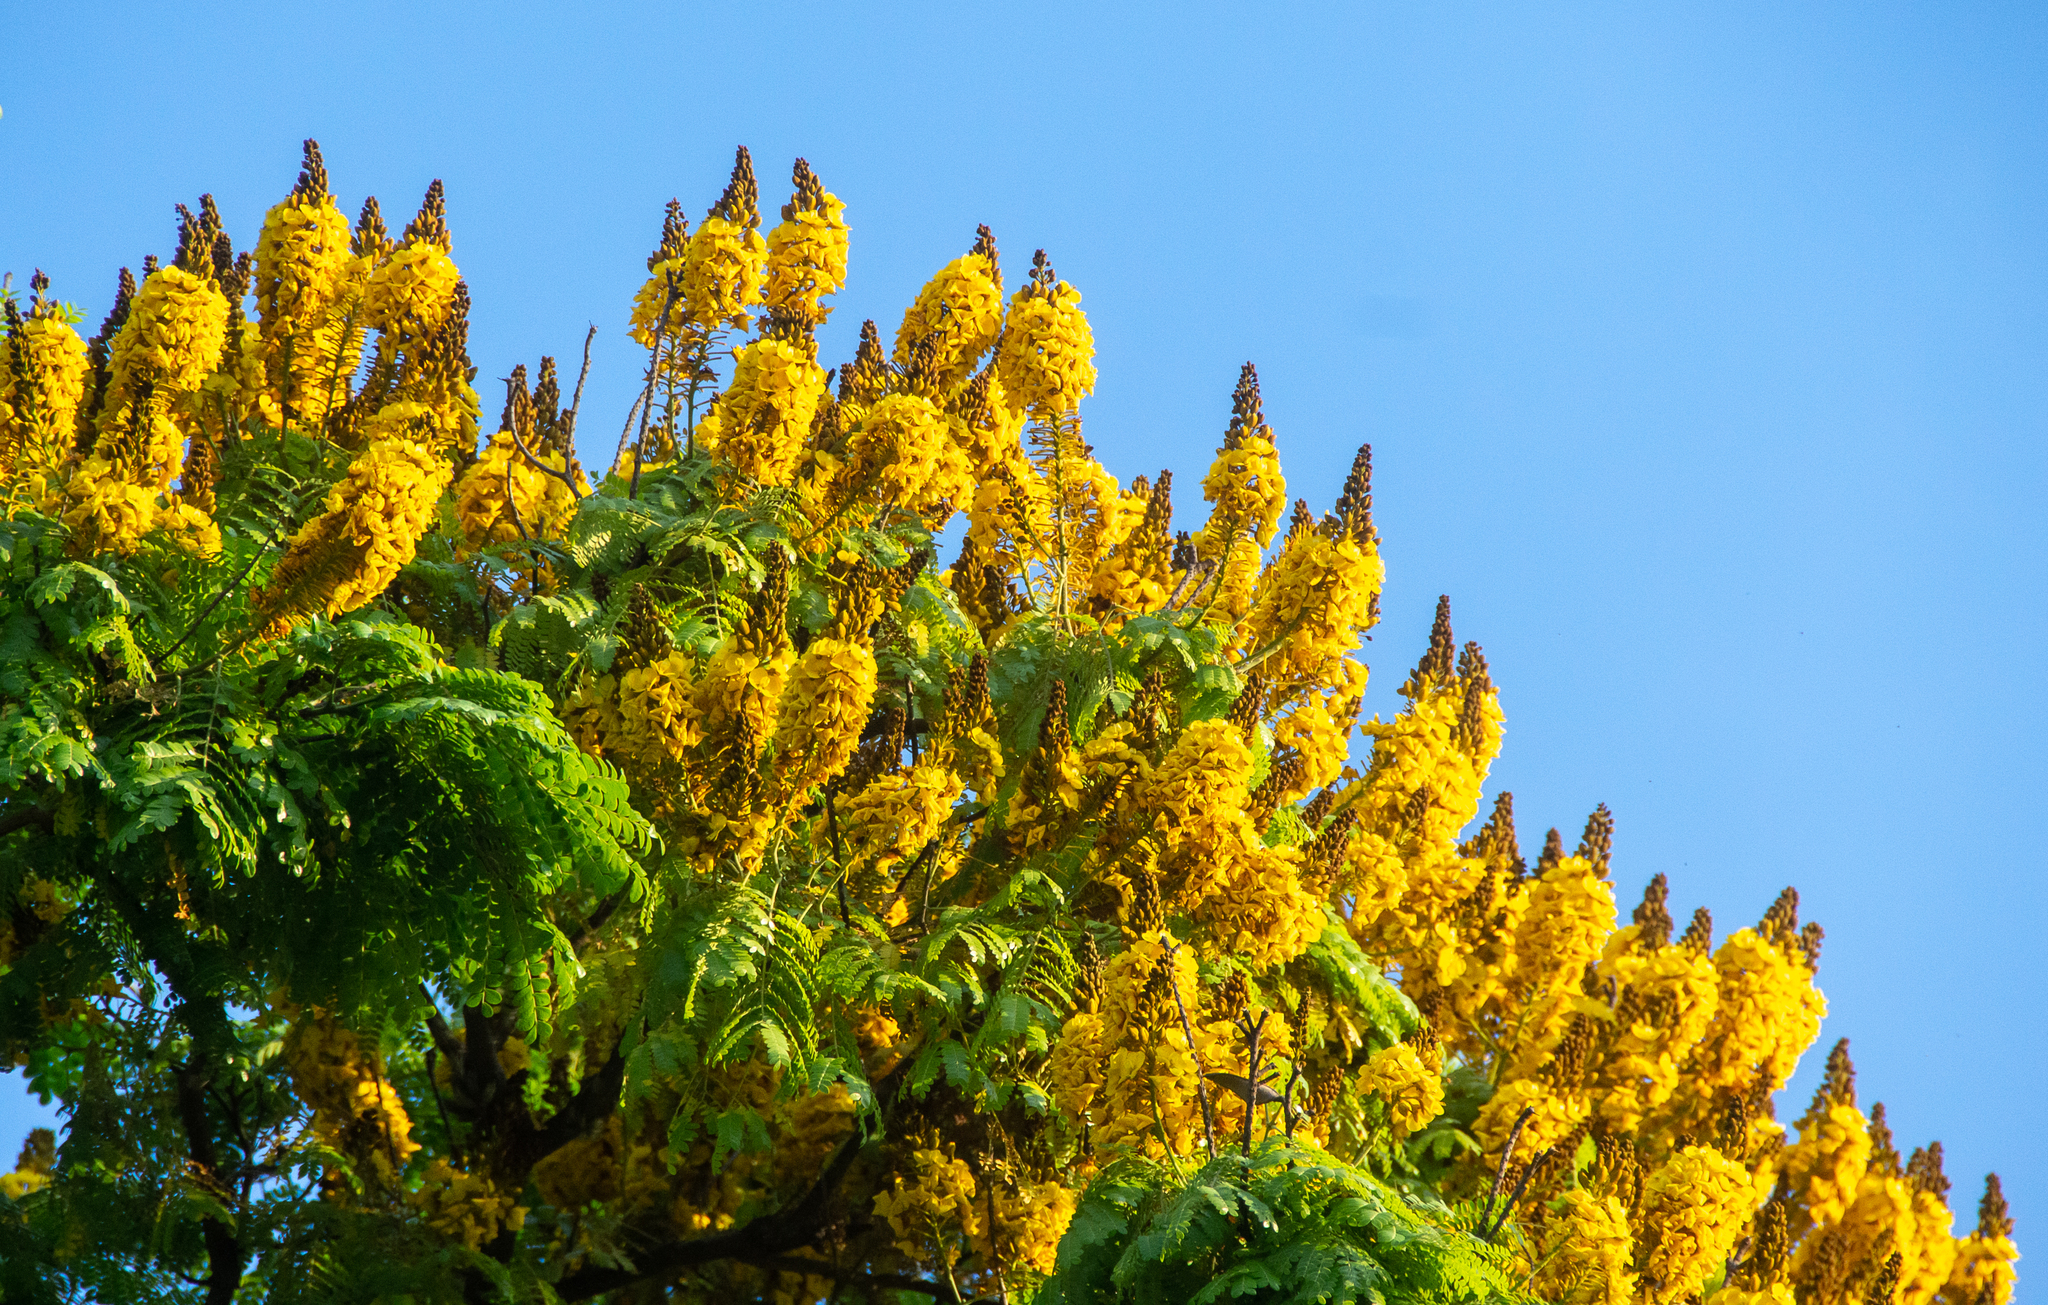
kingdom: Plantae
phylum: Tracheophyta
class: Magnoliopsida
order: Fabales
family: Fabaceae
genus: Cenostigma
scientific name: Cenostigma pluviosum
